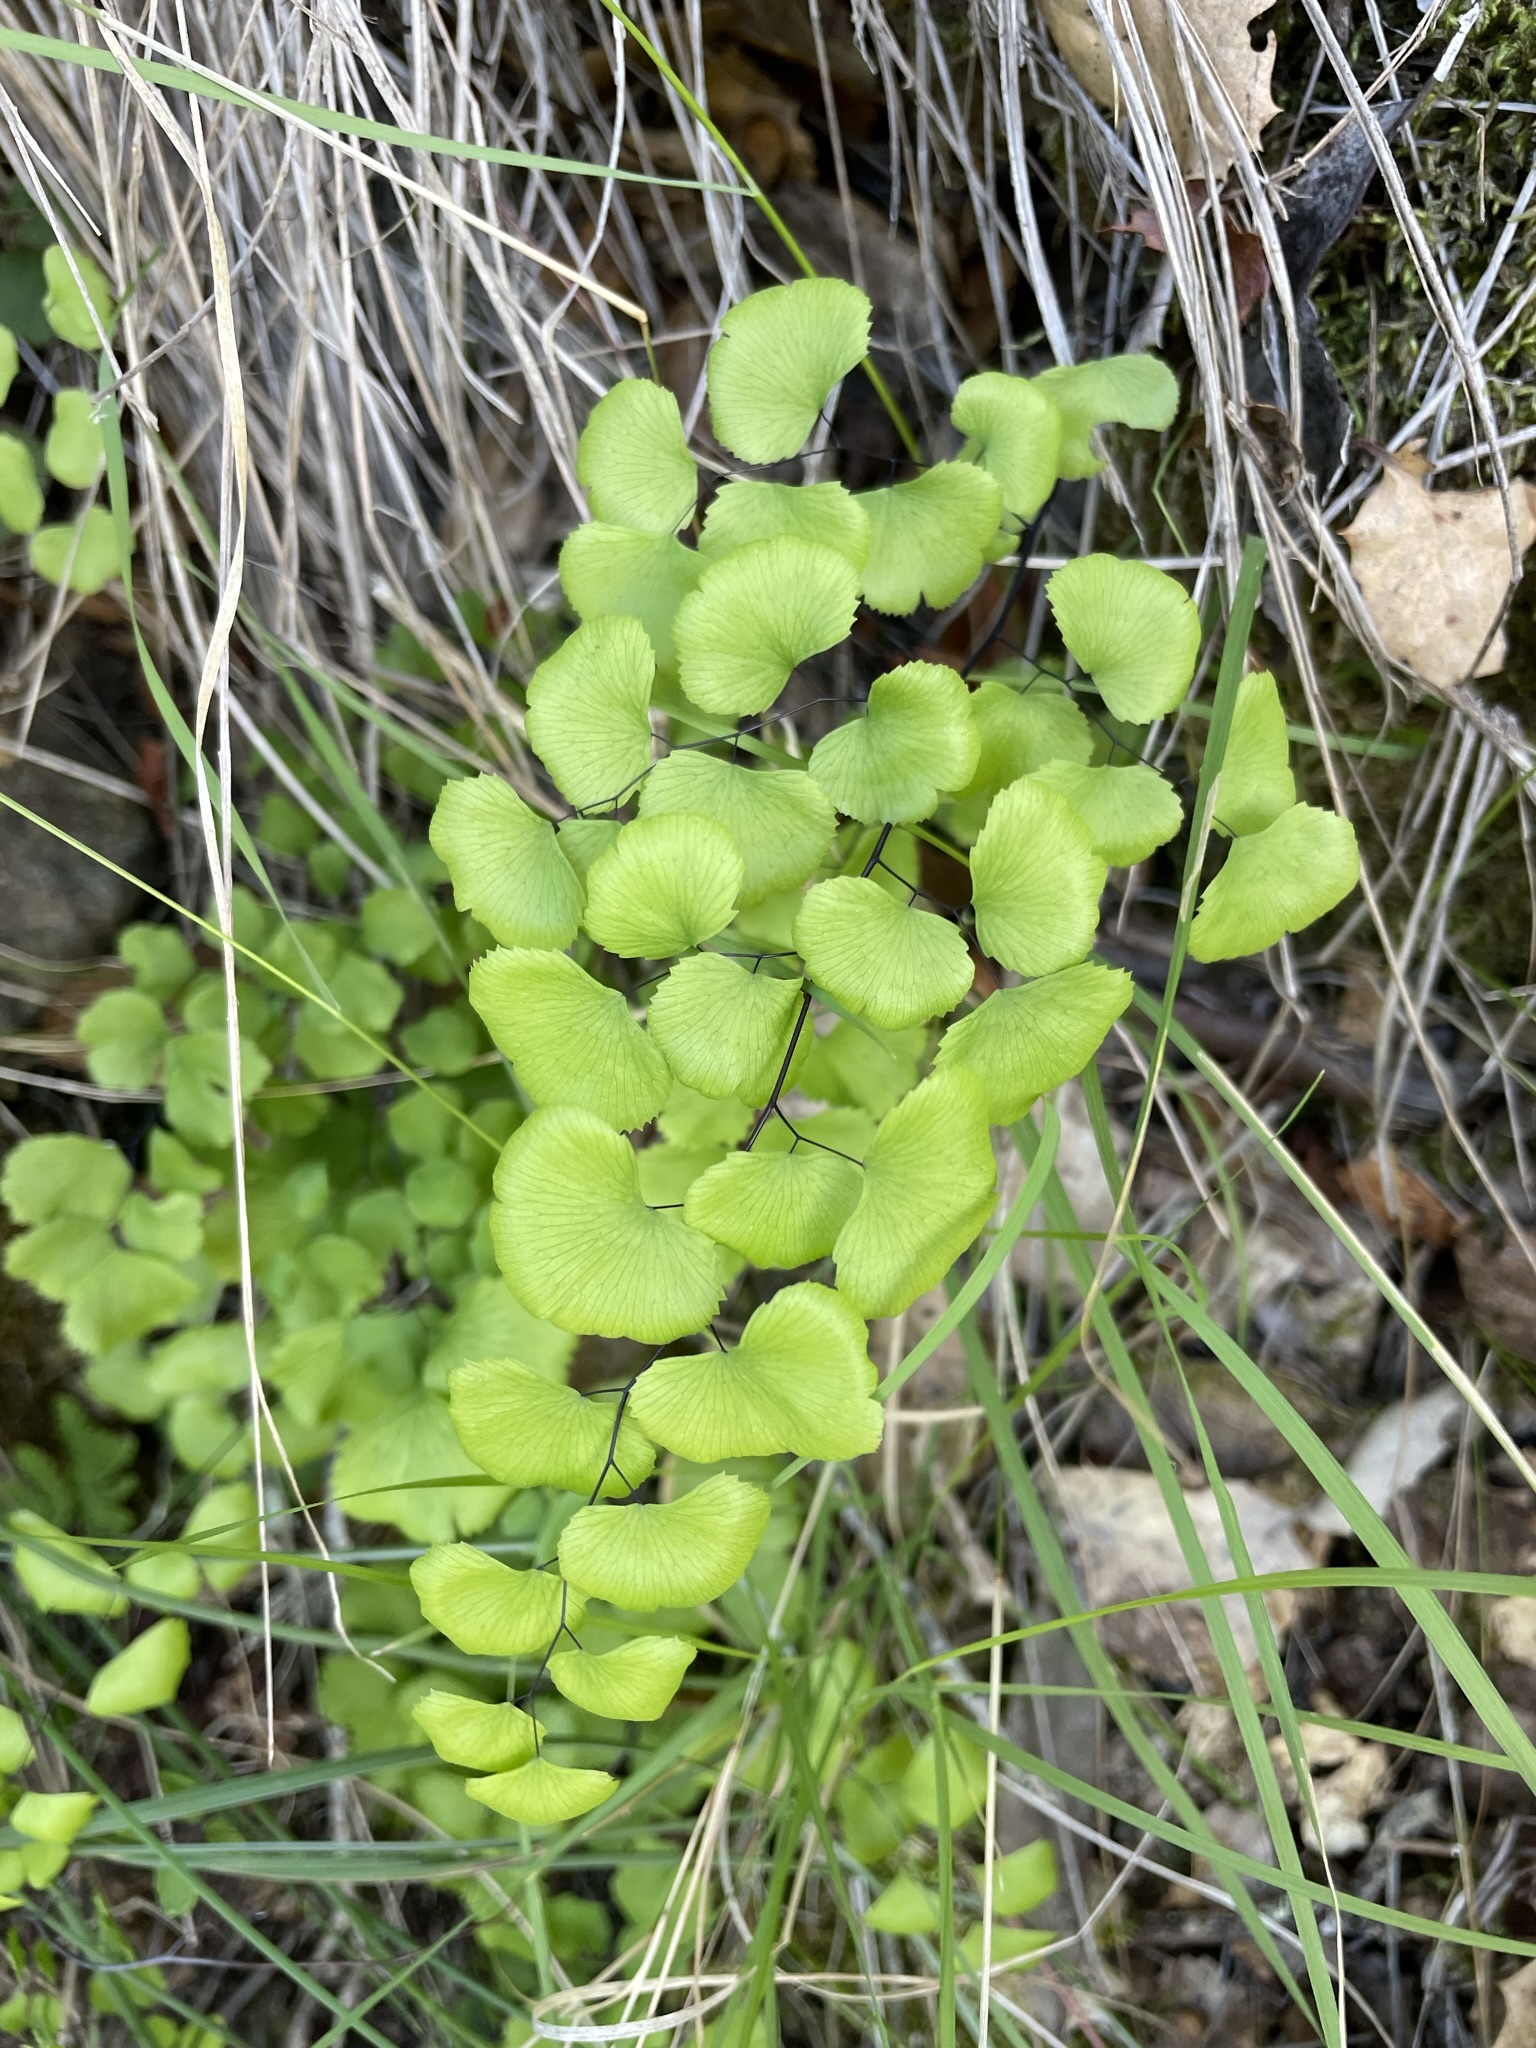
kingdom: Plantae
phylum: Tracheophyta
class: Polypodiopsida
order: Polypodiales
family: Pteridaceae
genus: Adiantum
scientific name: Adiantum jordanii
